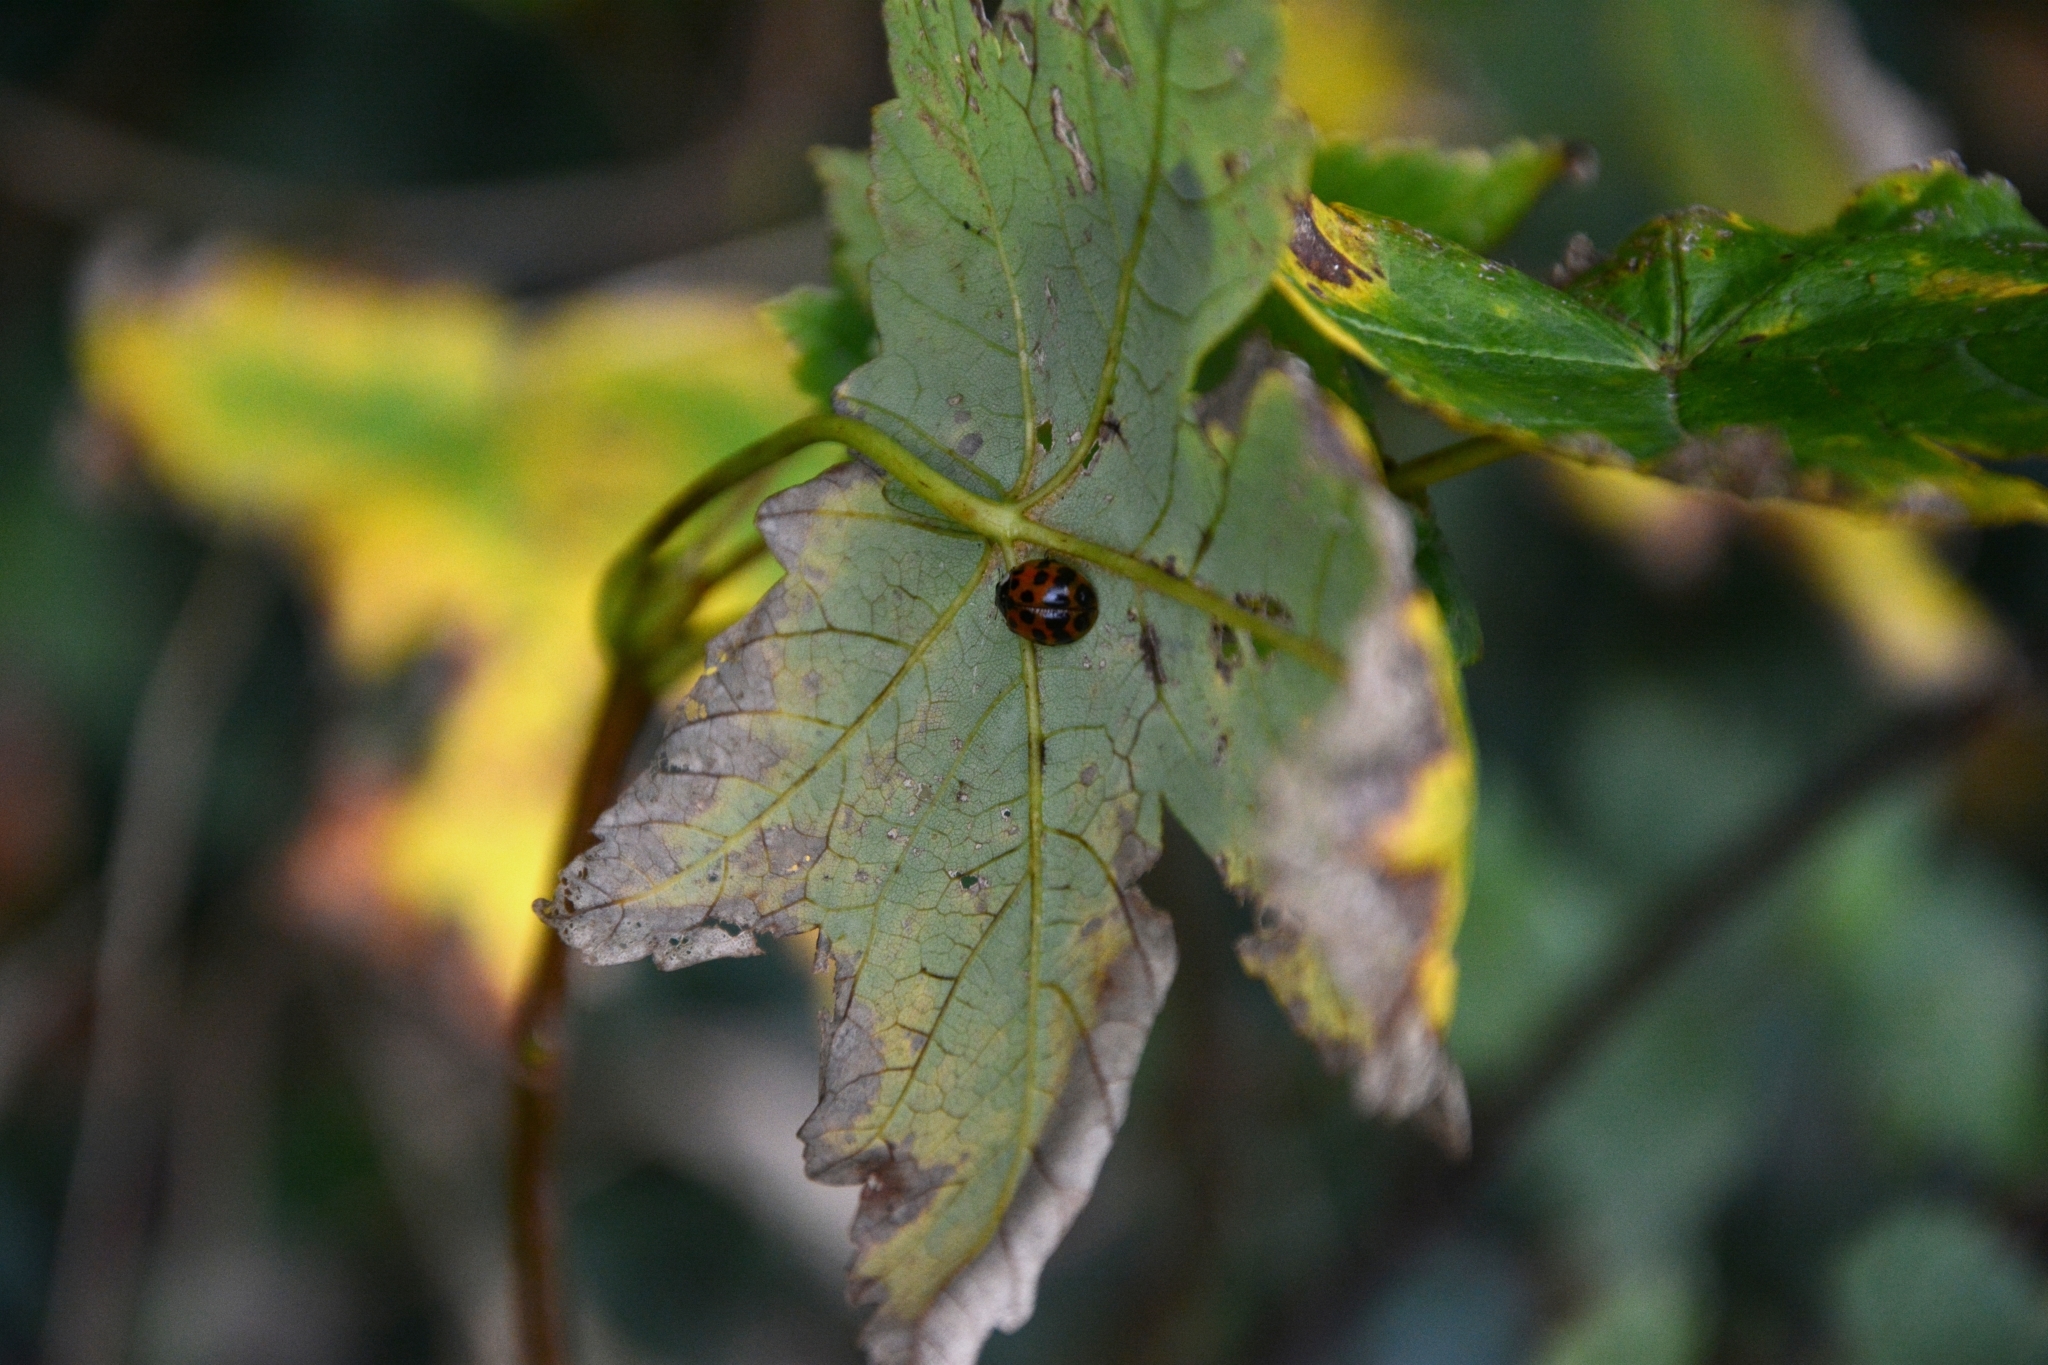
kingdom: Animalia
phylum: Arthropoda
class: Insecta
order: Coleoptera
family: Coccinellidae
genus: Harmonia
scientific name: Harmonia axyridis
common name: Harlequin ladybird
